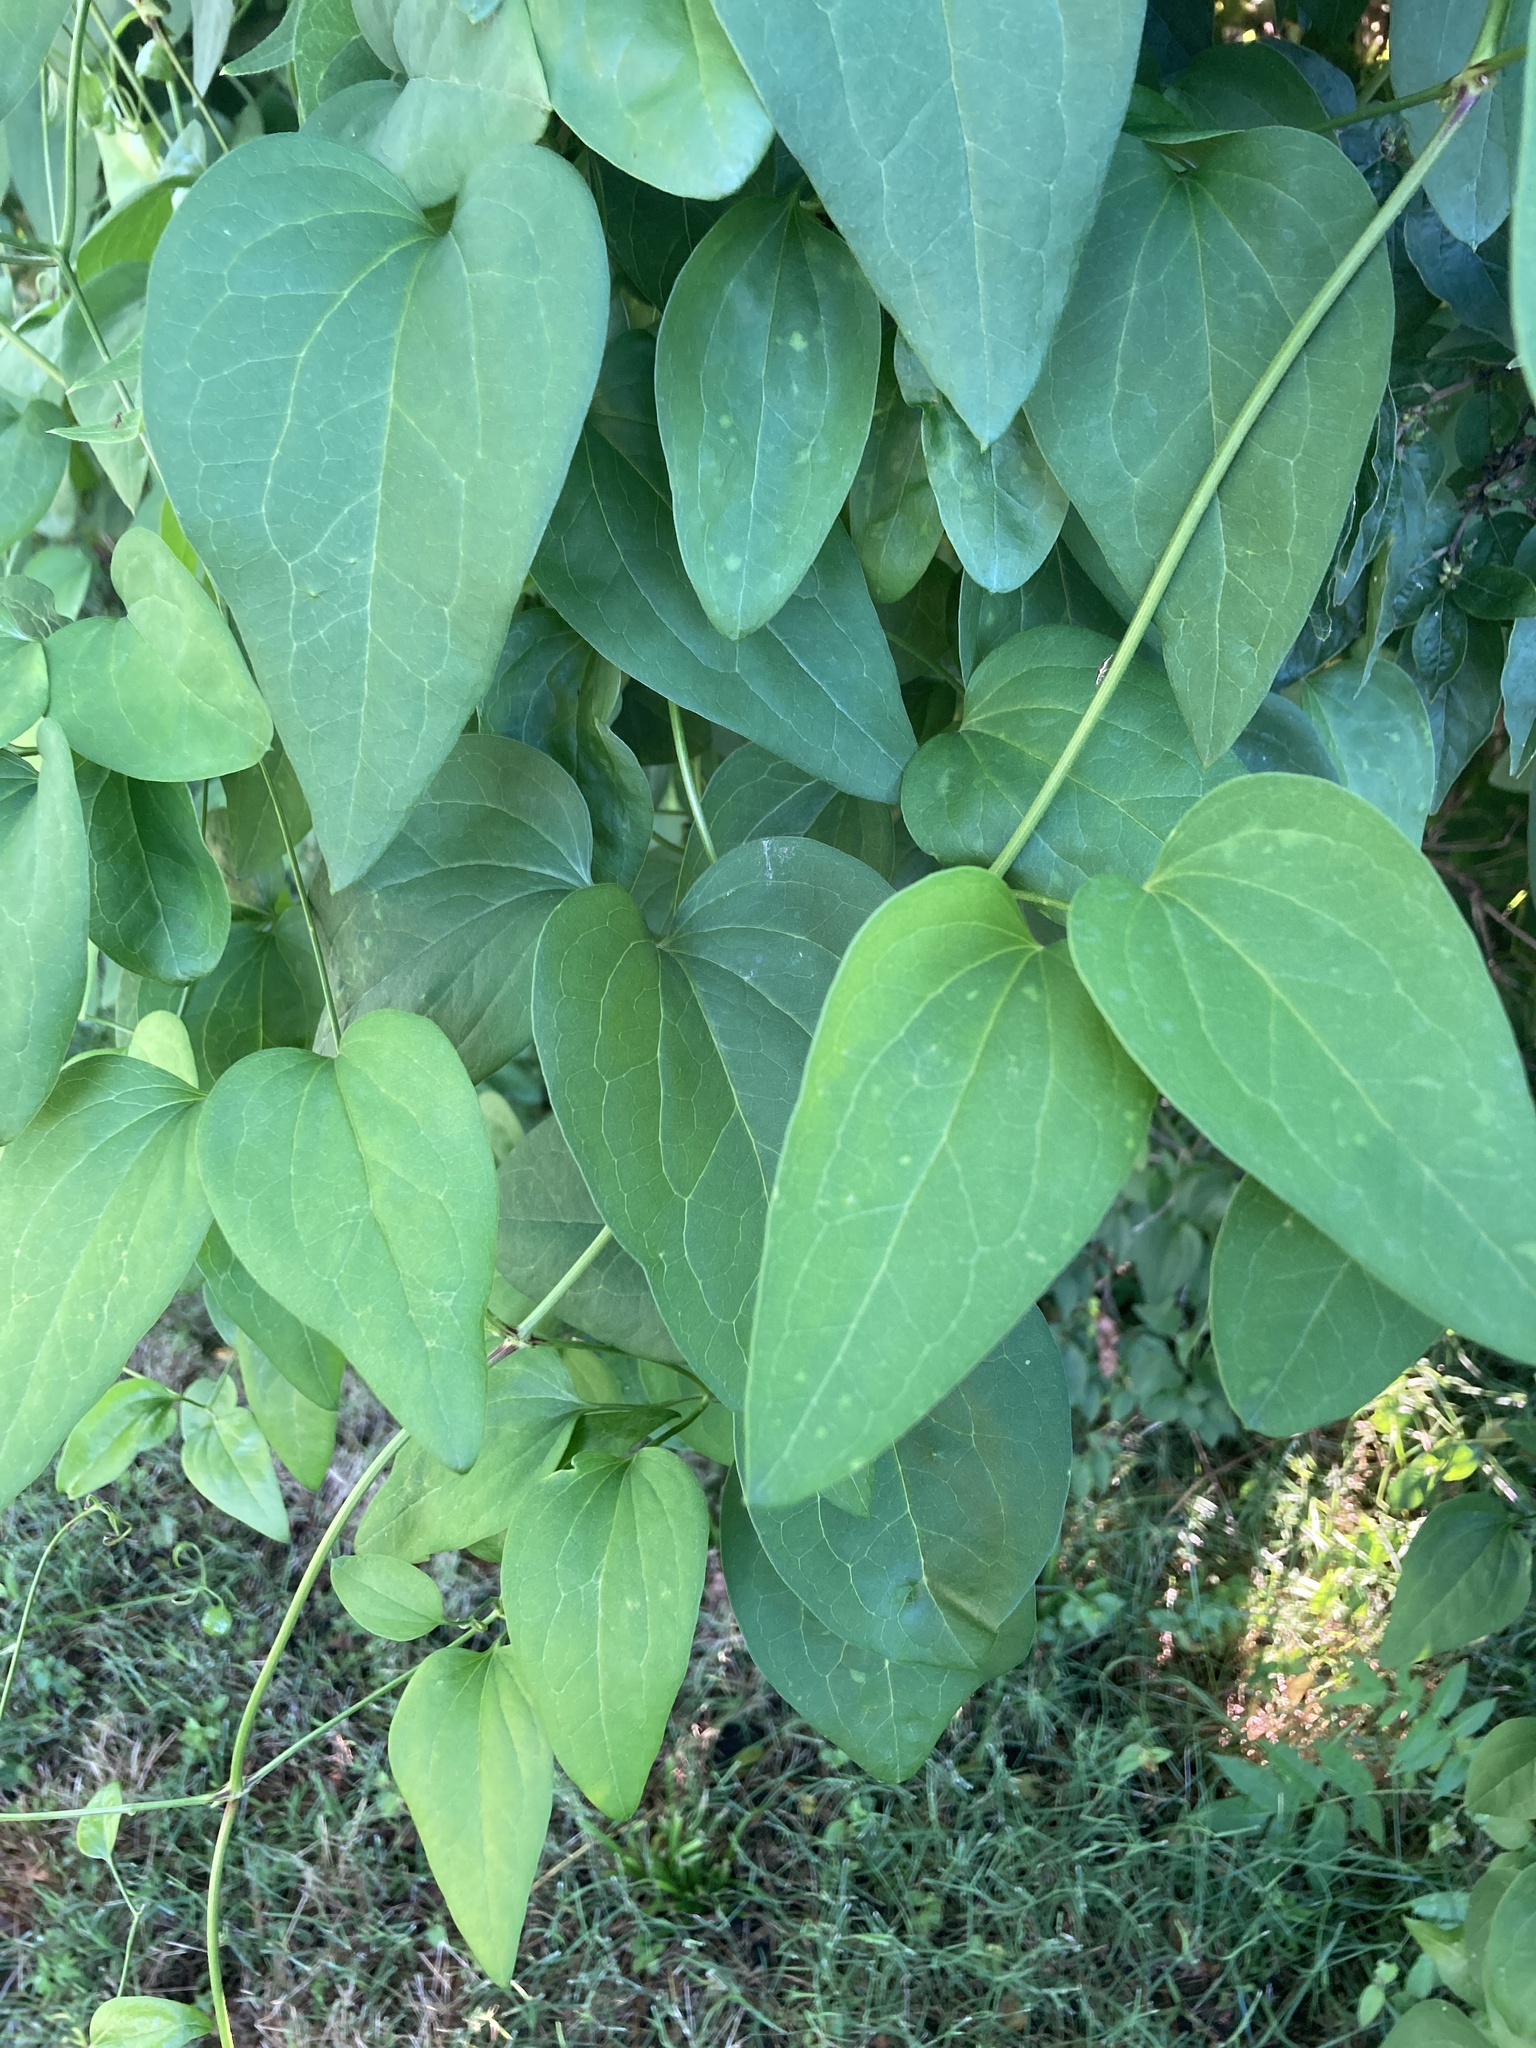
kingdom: Plantae
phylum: Tracheophyta
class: Magnoliopsida
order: Ranunculales
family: Ranunculaceae
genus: Clematis
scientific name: Clematis terniflora
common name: Sweet autumn clematis
